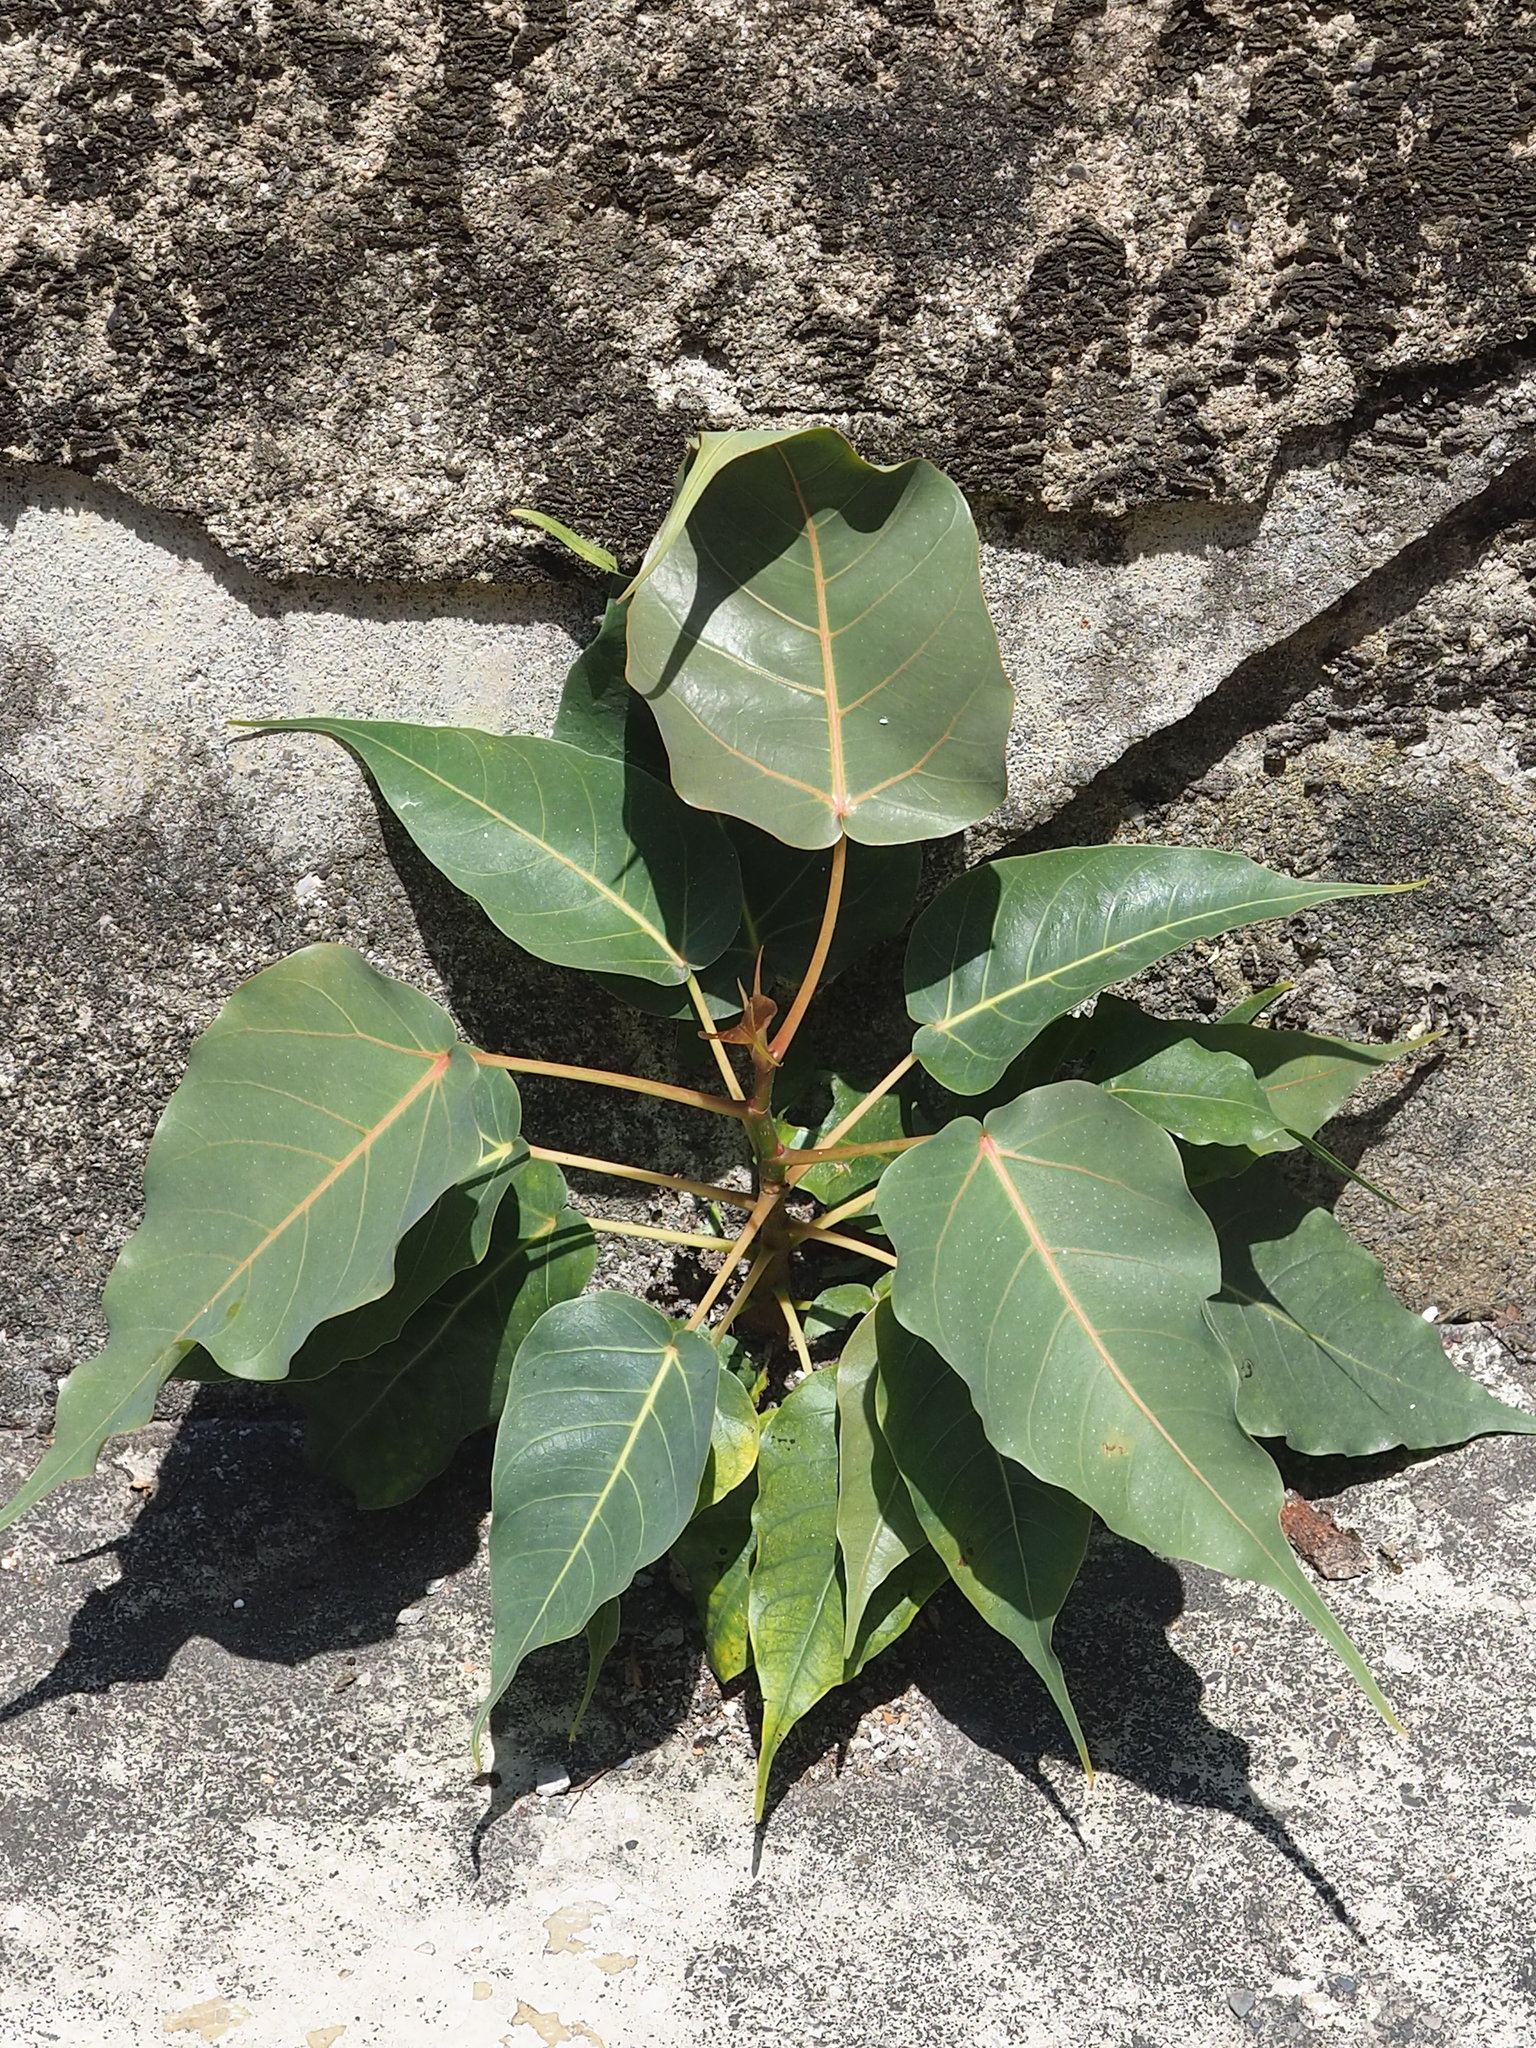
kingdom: Plantae
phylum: Tracheophyta
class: Magnoliopsida
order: Rosales
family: Moraceae
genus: Ficus
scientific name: Ficus religiosa
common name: Bodhi tree
